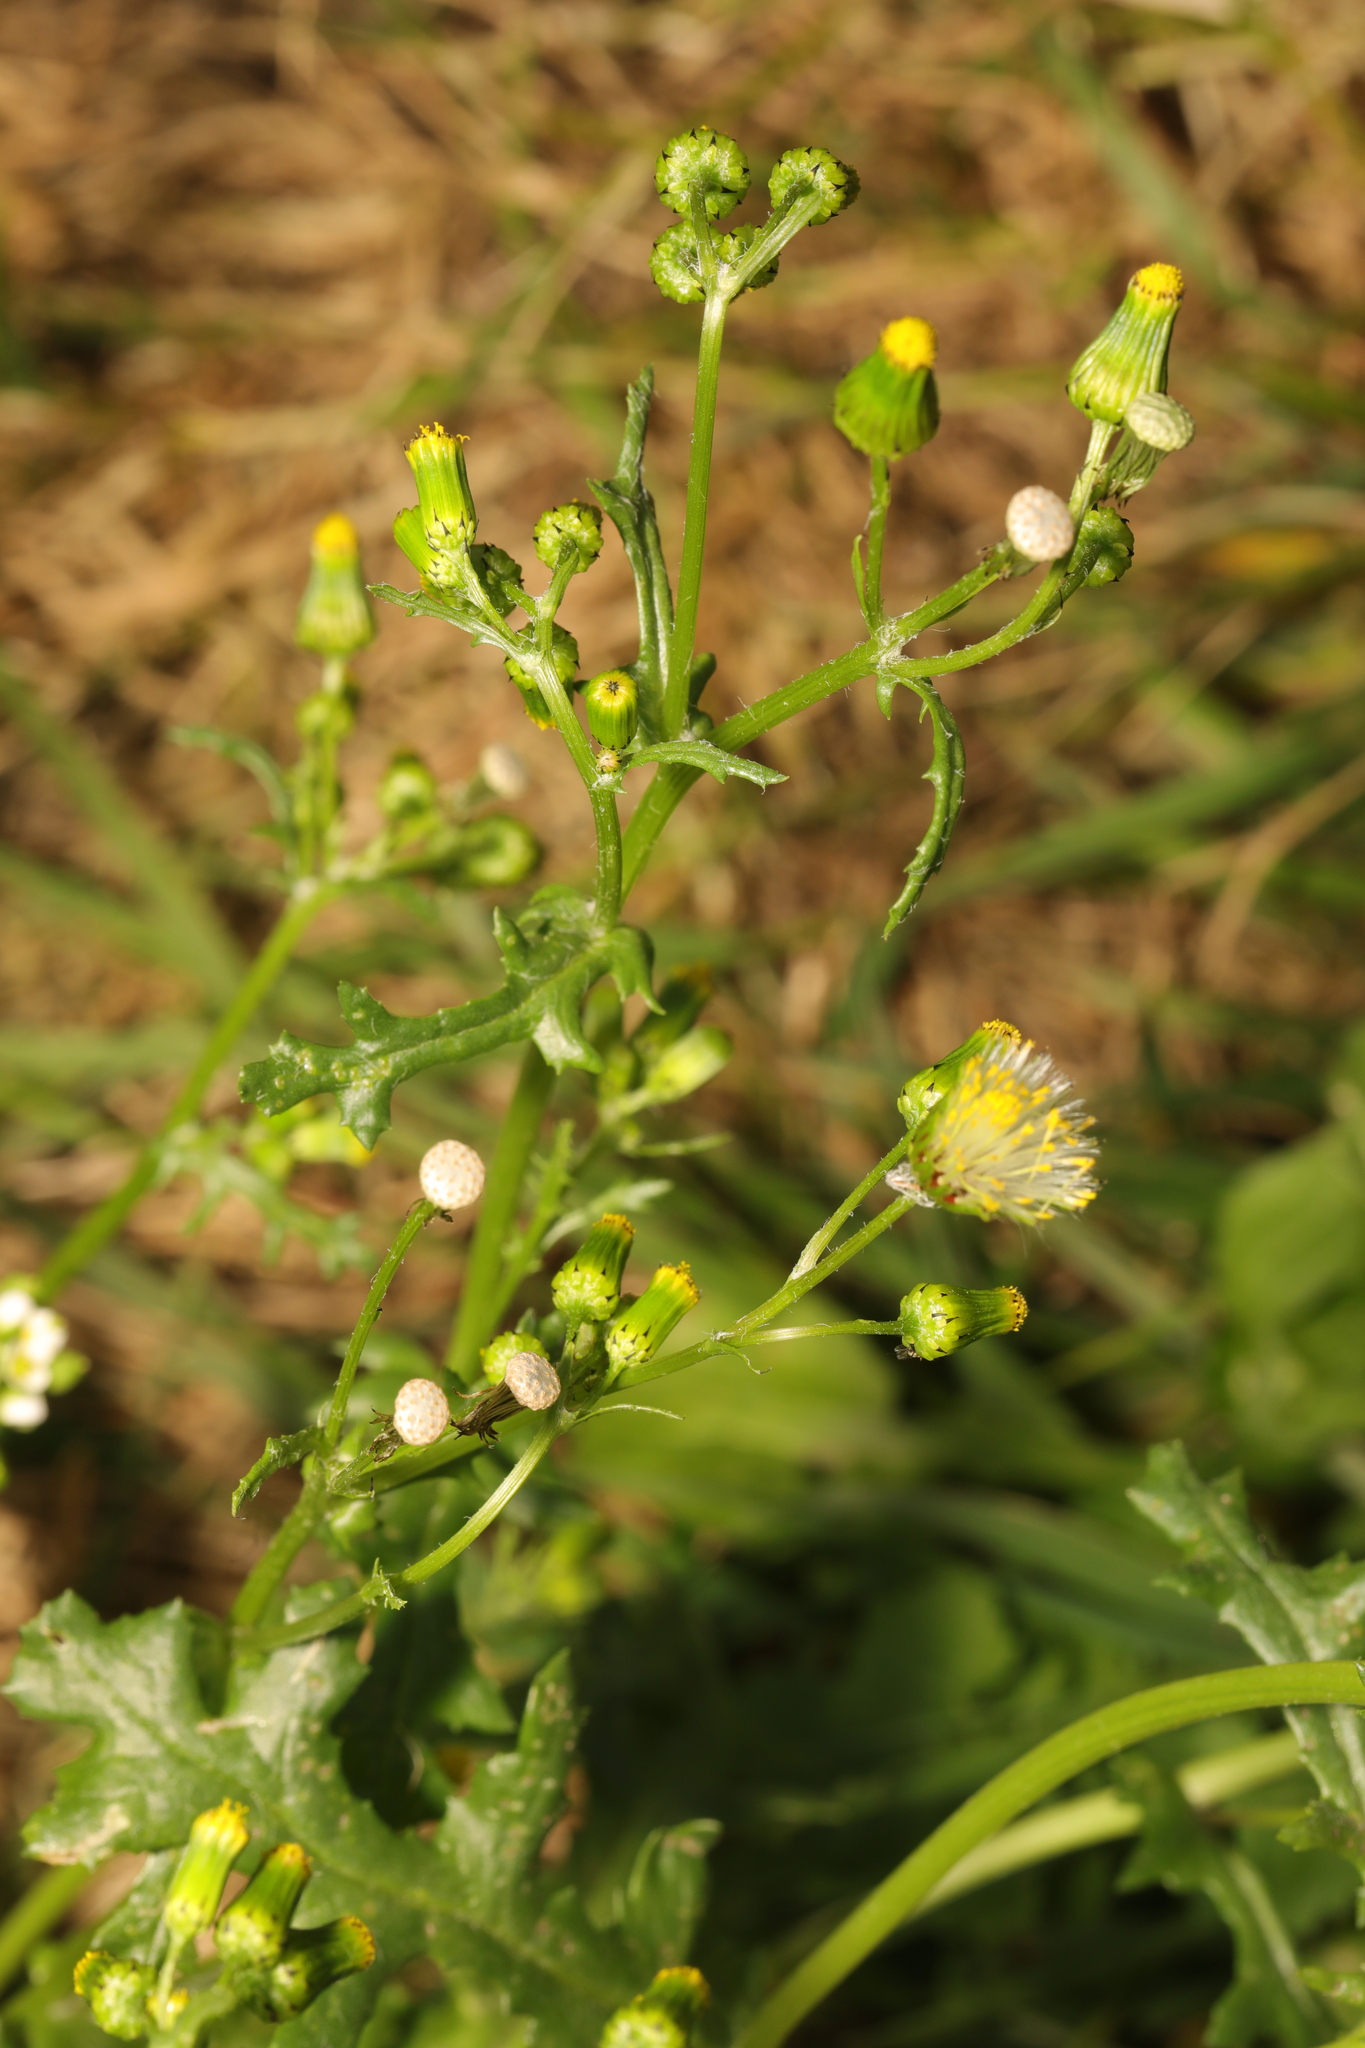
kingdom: Plantae
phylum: Tracheophyta
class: Magnoliopsida
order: Asterales
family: Asteraceae
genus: Senecio
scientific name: Senecio vulgaris
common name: Old-man-in-the-spring
